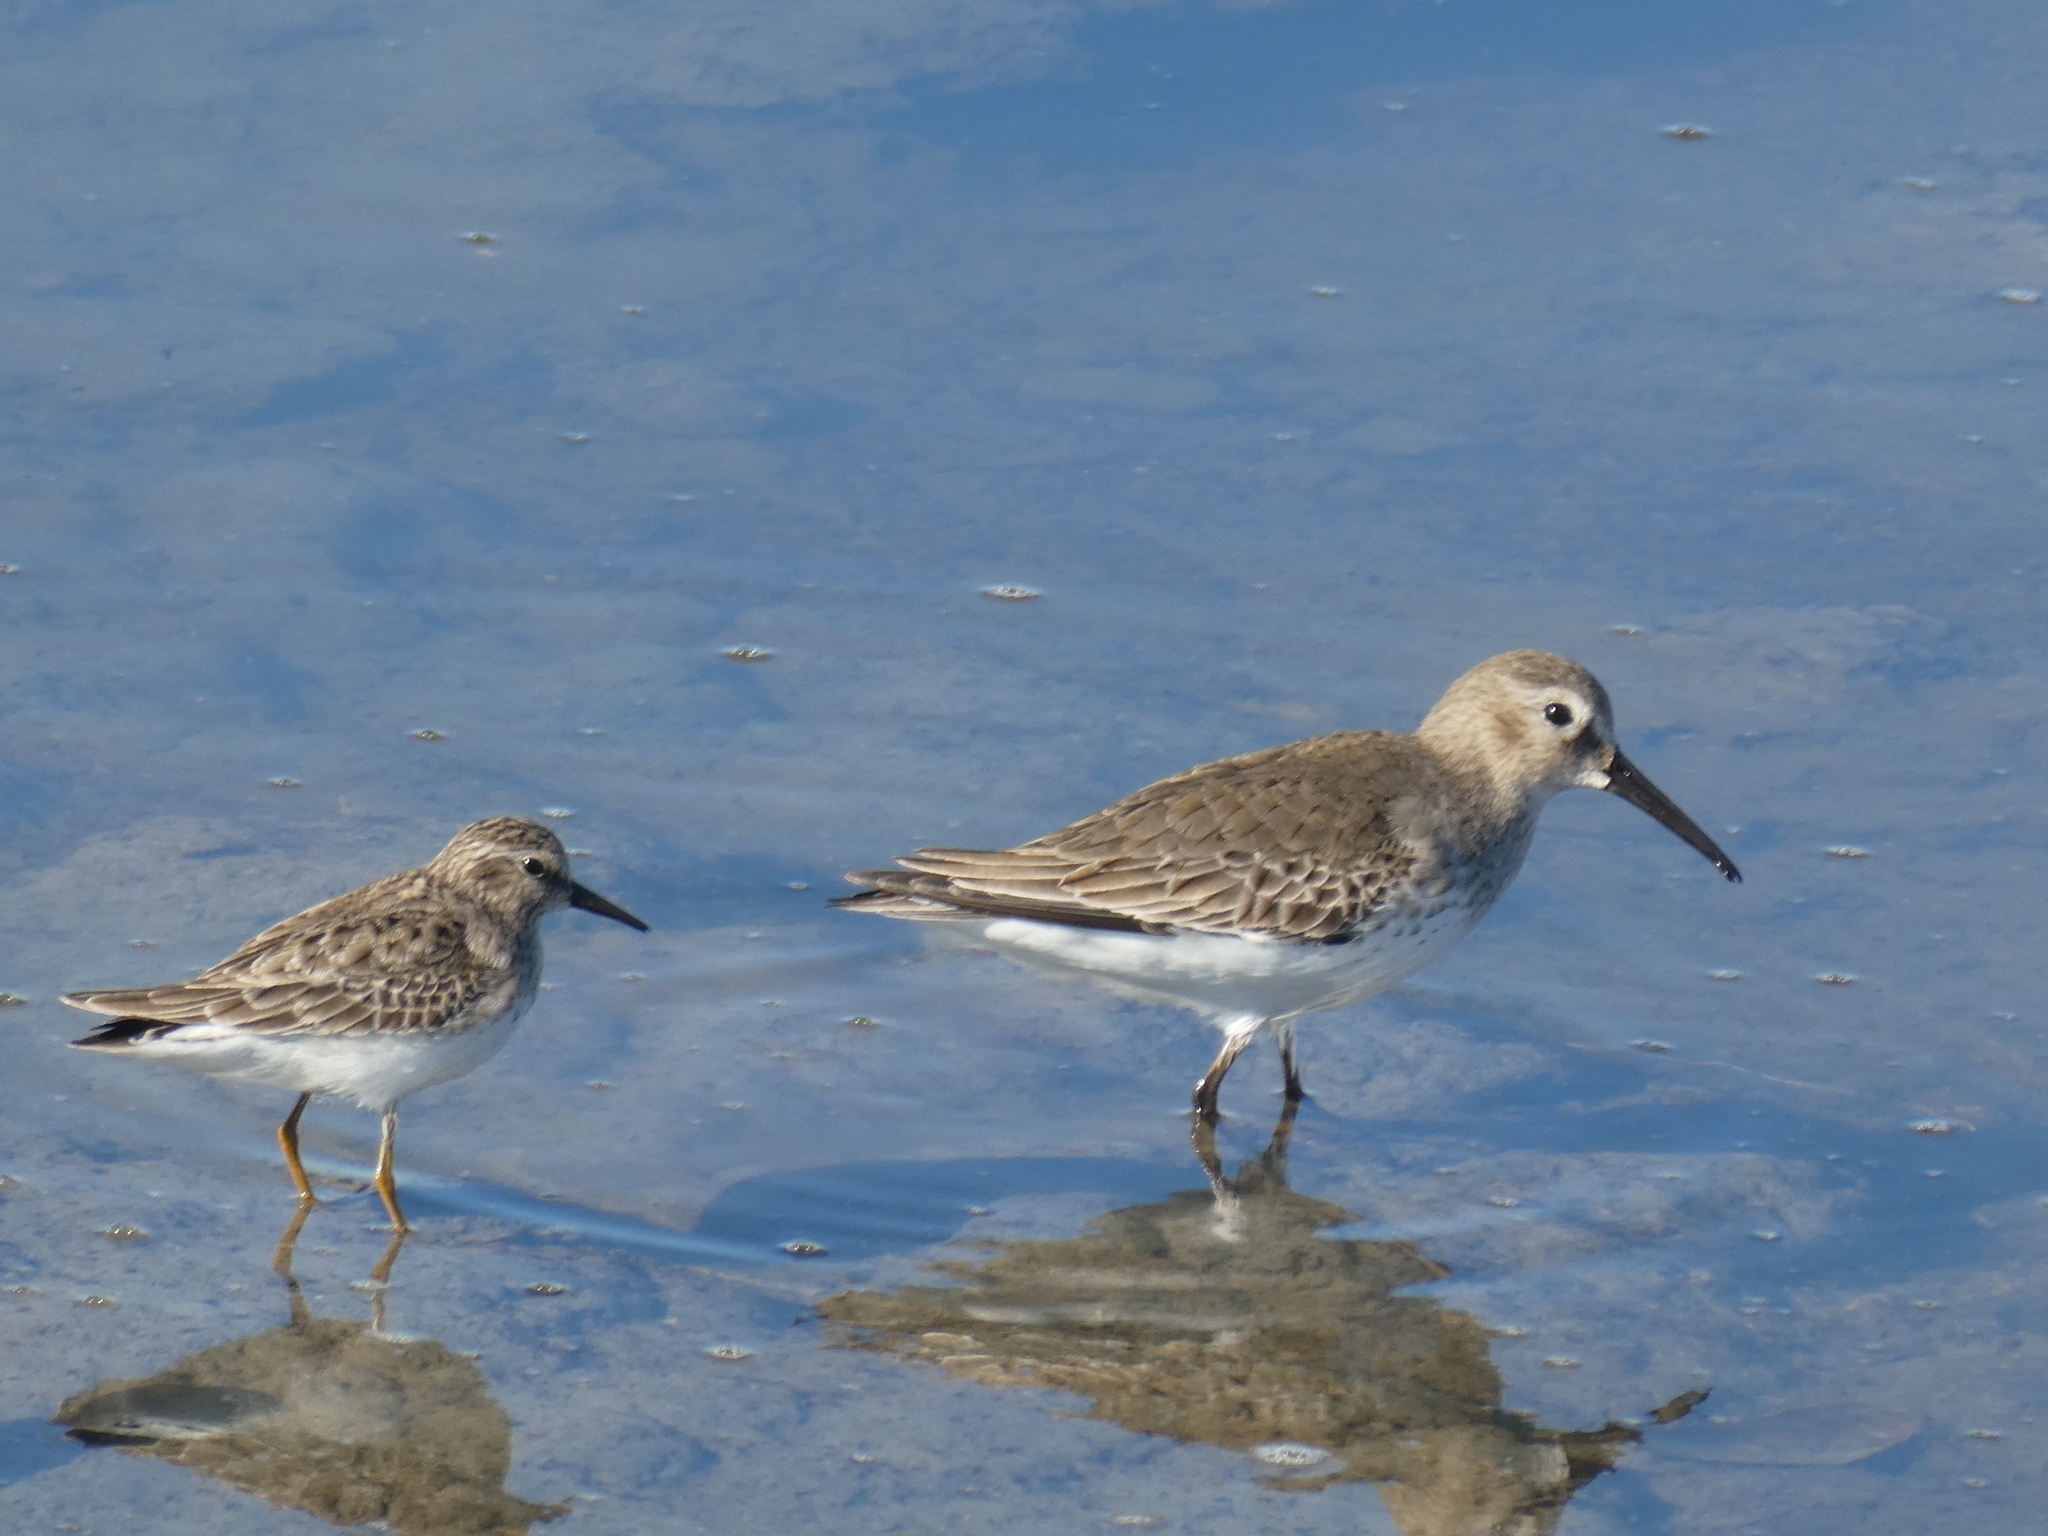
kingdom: Animalia
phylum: Chordata
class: Aves
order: Charadriiformes
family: Scolopacidae
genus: Calidris
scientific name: Calidris minutilla
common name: Least sandpiper
